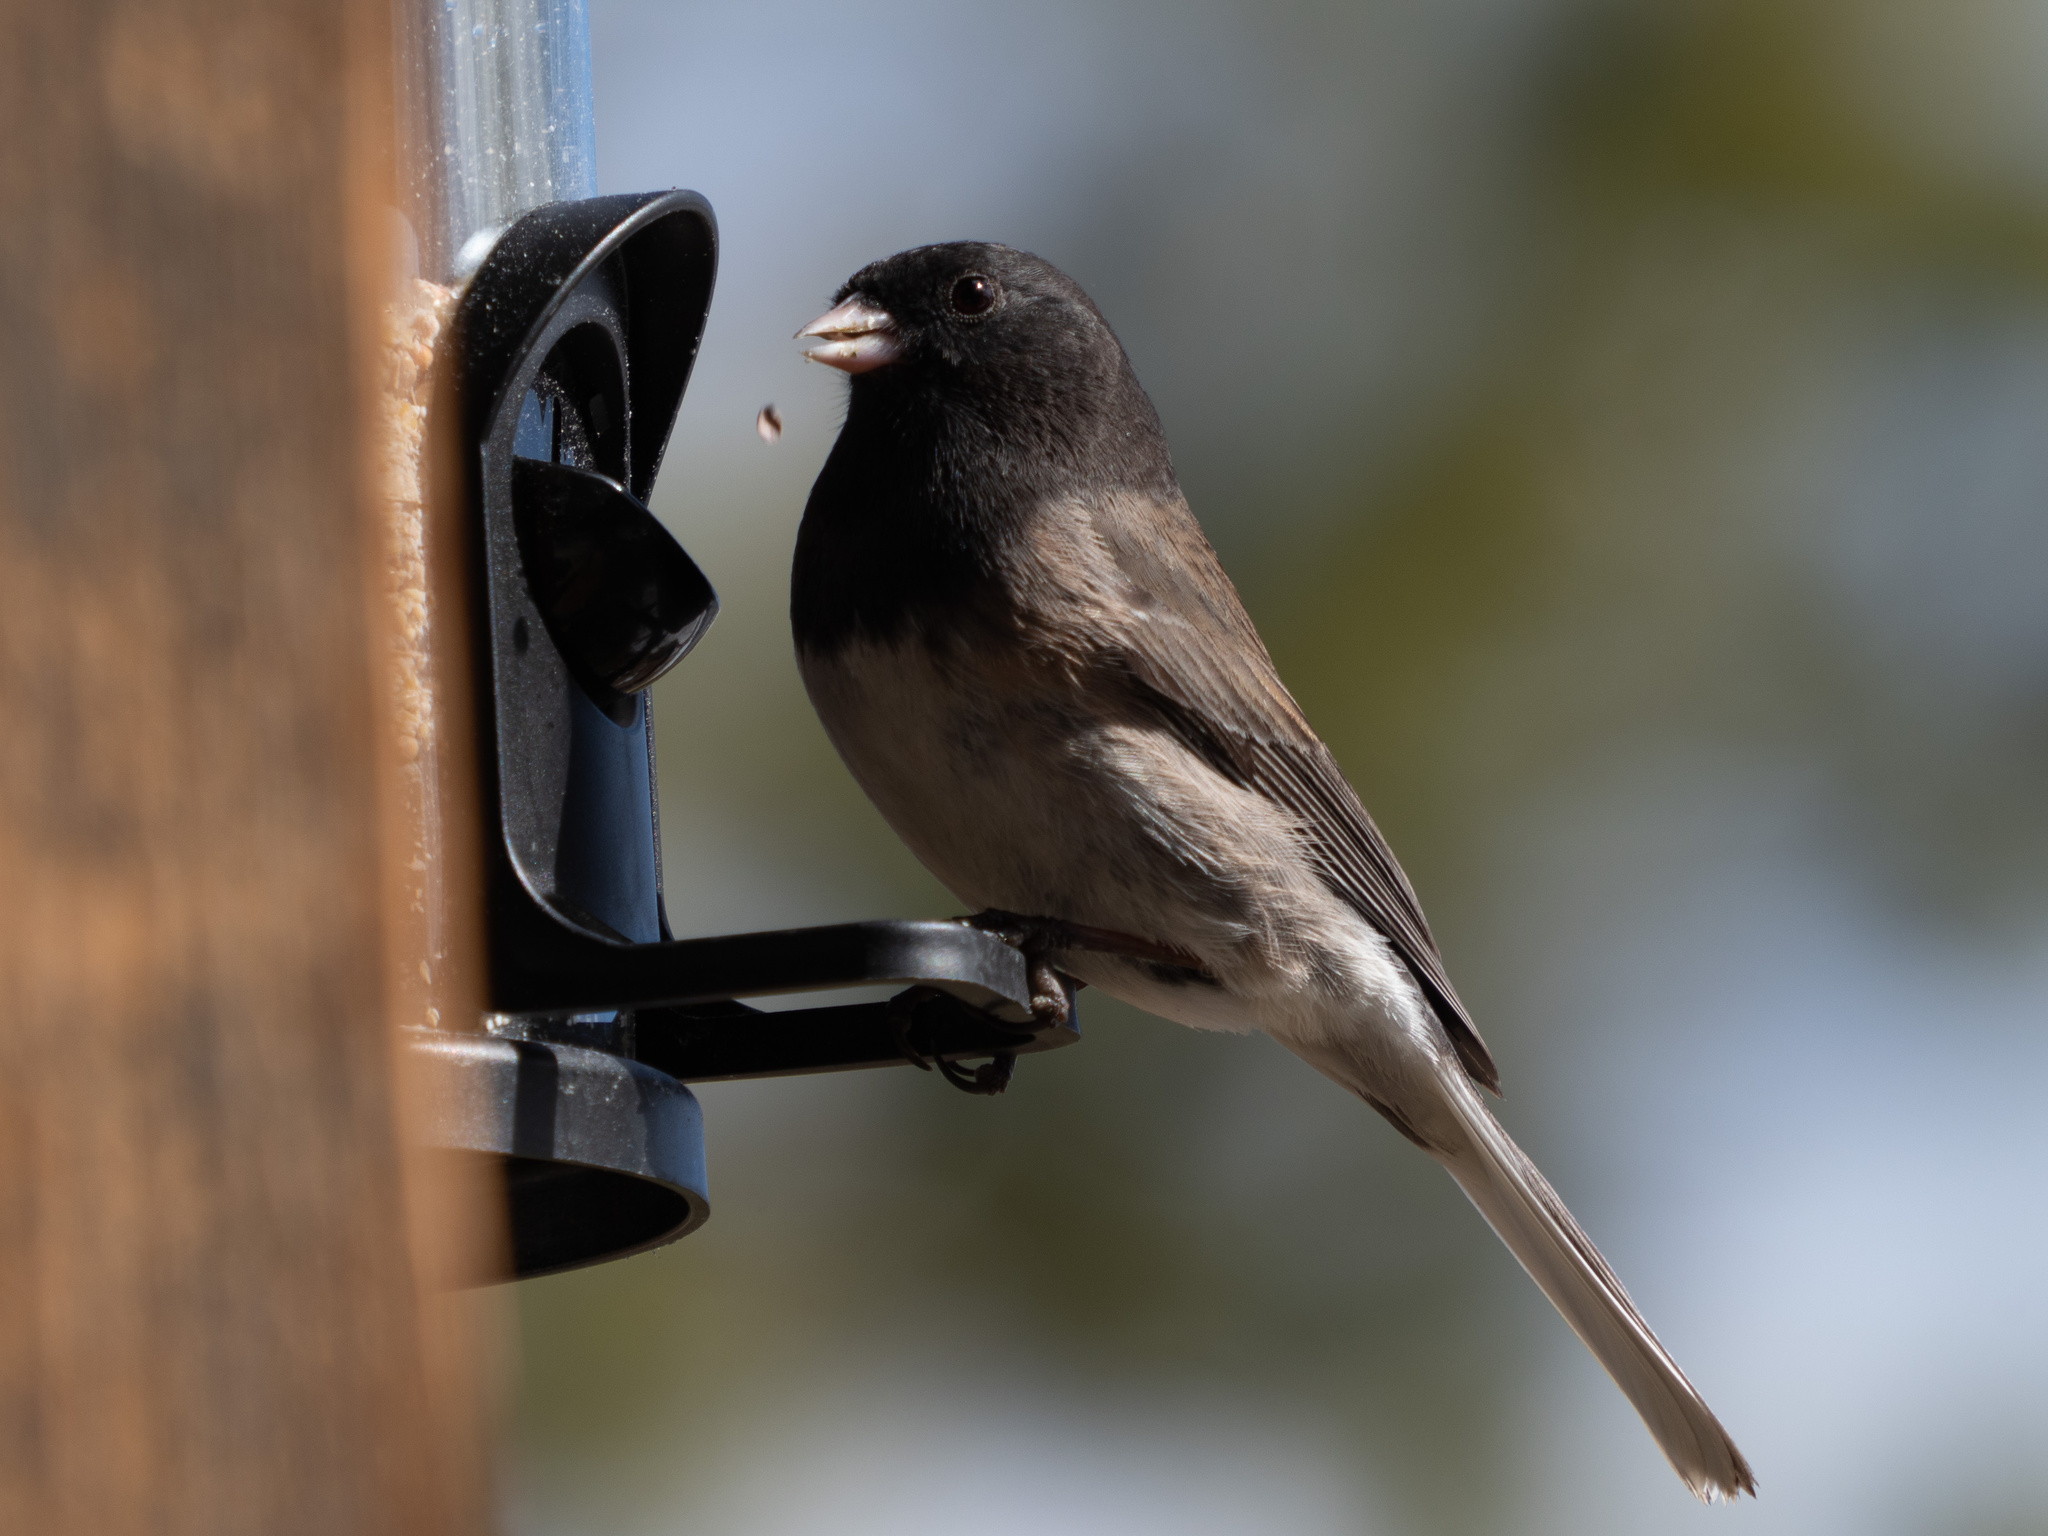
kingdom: Animalia
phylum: Chordata
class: Aves
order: Passeriformes
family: Passerellidae
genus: Junco
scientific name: Junco hyemalis
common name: Dark-eyed junco
